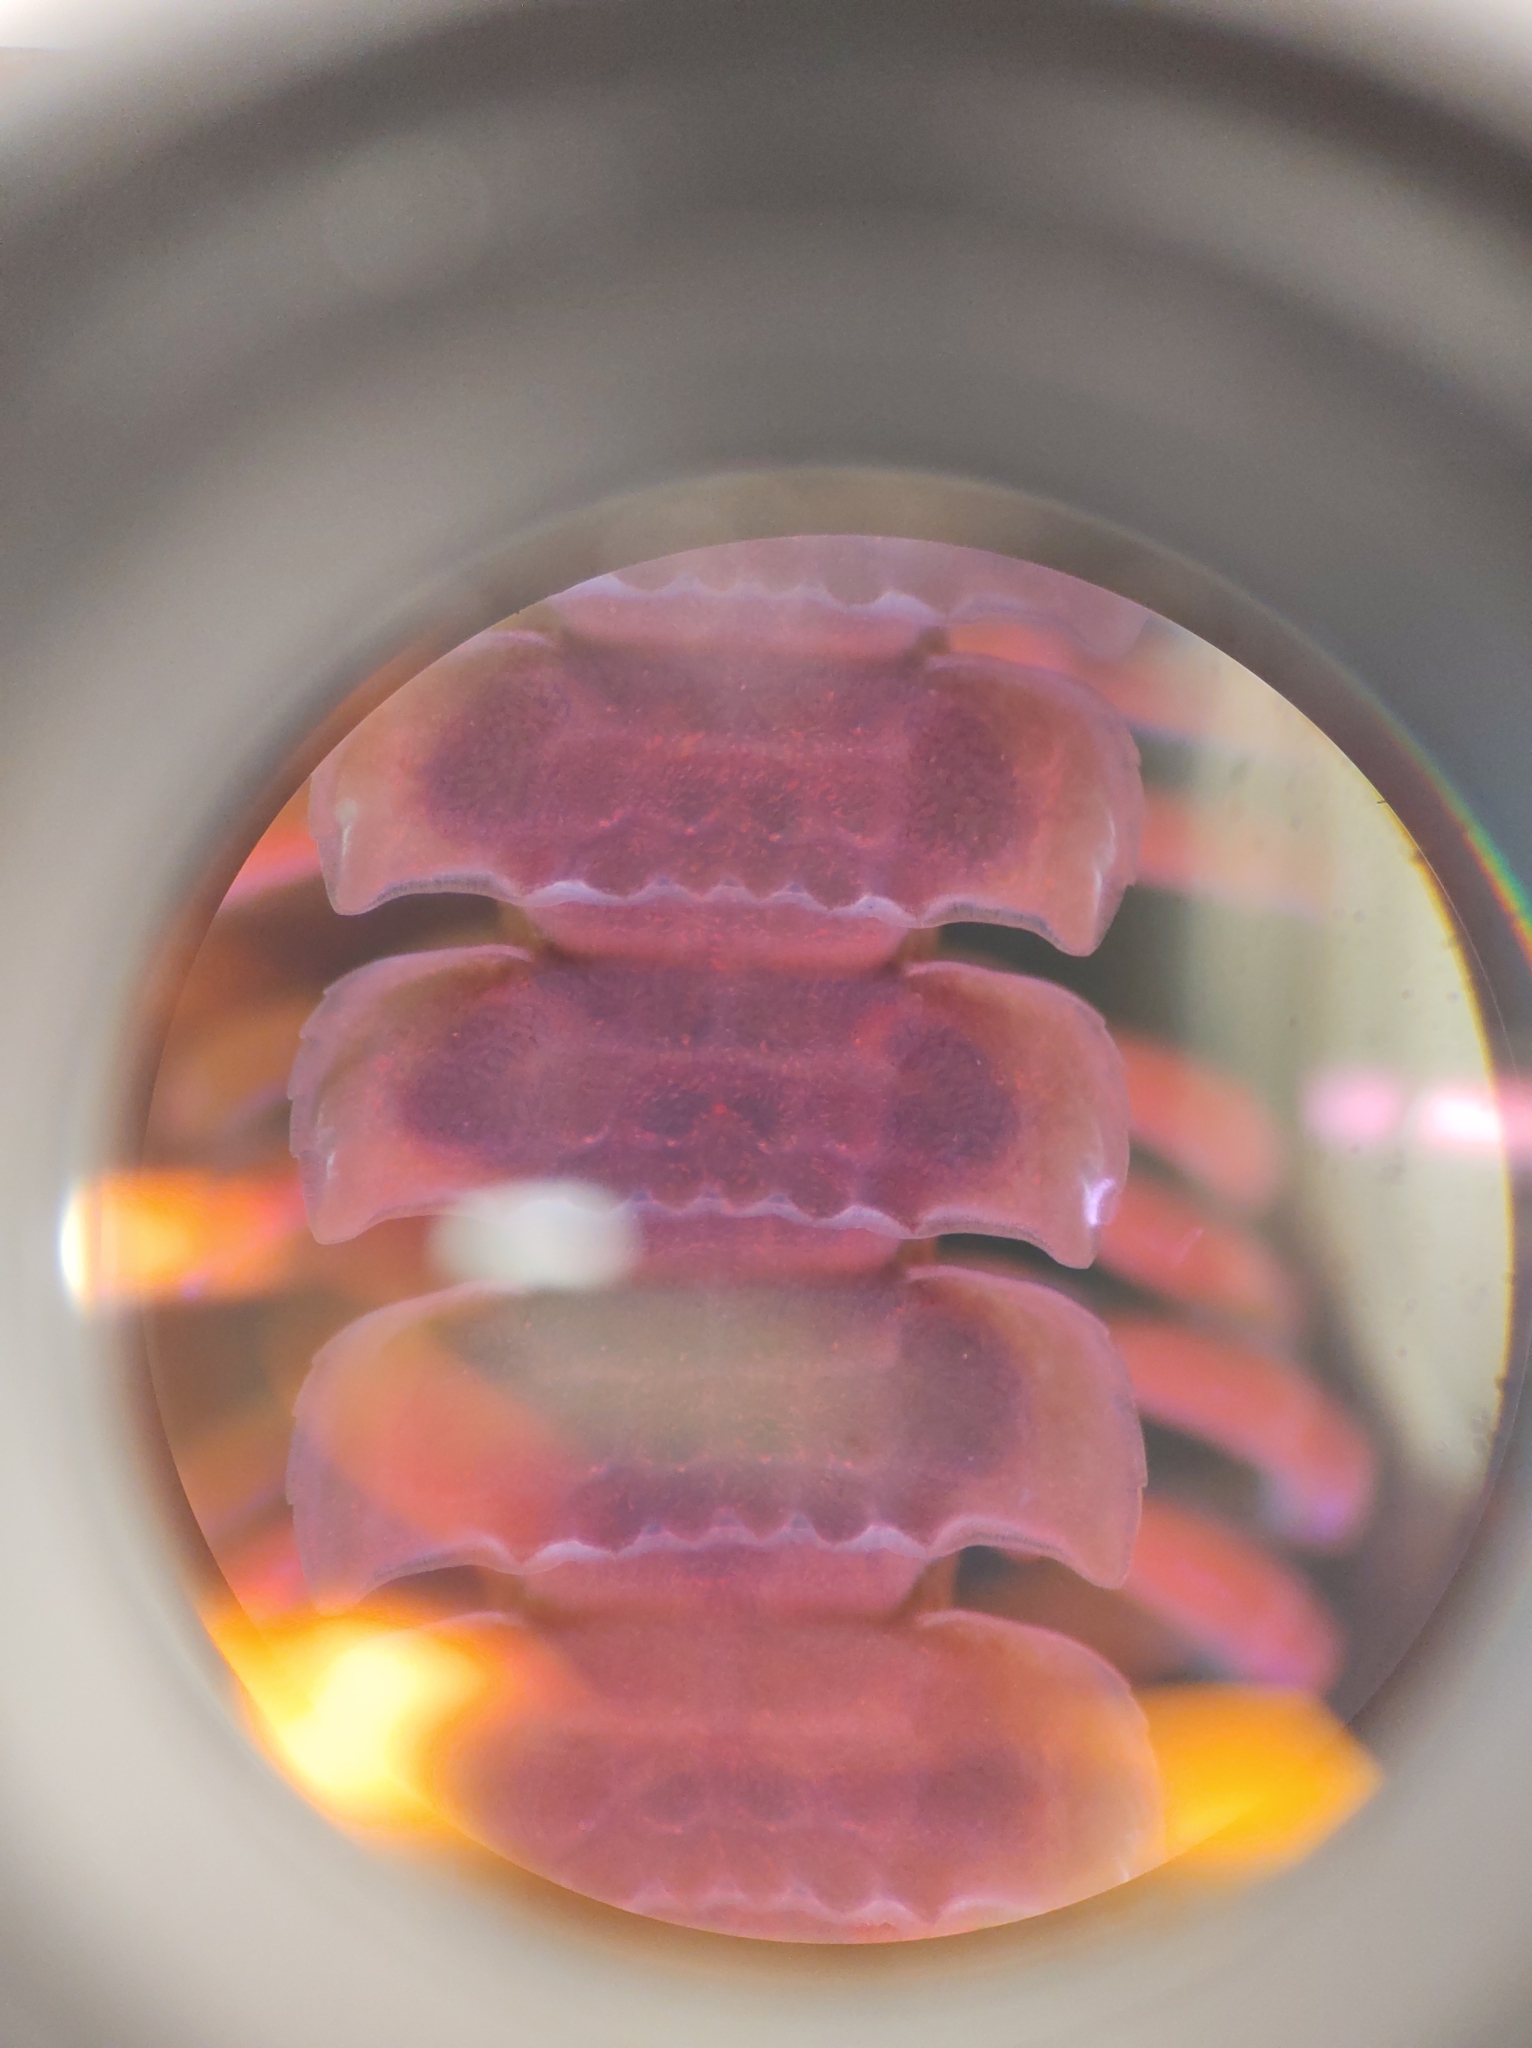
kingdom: Animalia
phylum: Arthropoda
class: Diplopoda
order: Polydesmida
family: Polydesmidae
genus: Pseudopolydesmus
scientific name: Pseudopolydesmus erasus
